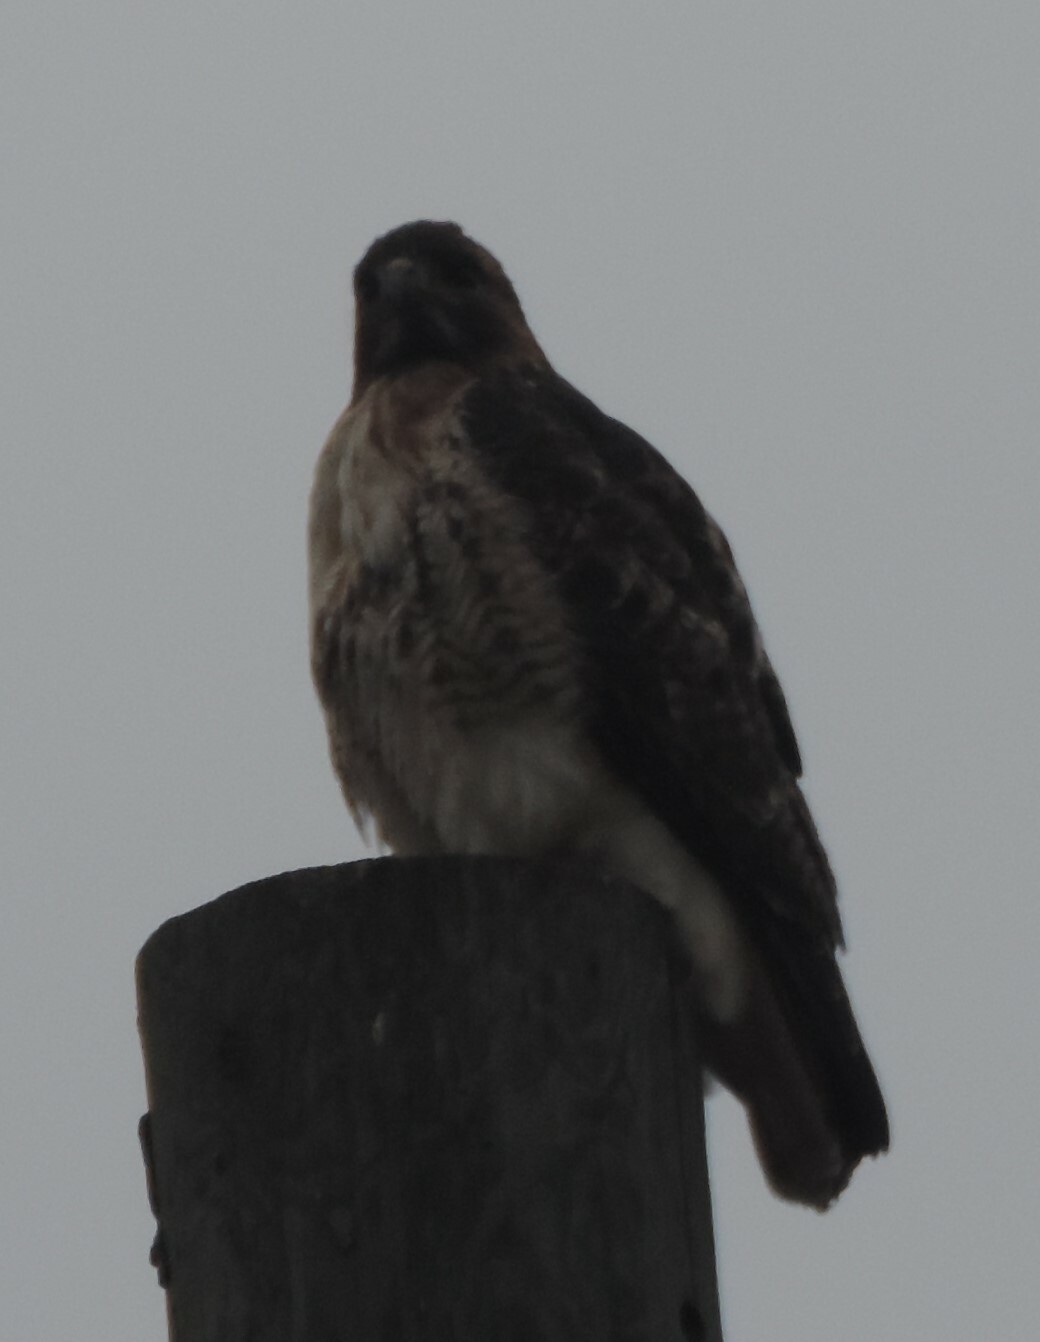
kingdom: Animalia
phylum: Chordata
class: Aves
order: Accipitriformes
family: Accipitridae
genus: Buteo
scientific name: Buteo jamaicensis
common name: Red-tailed hawk
